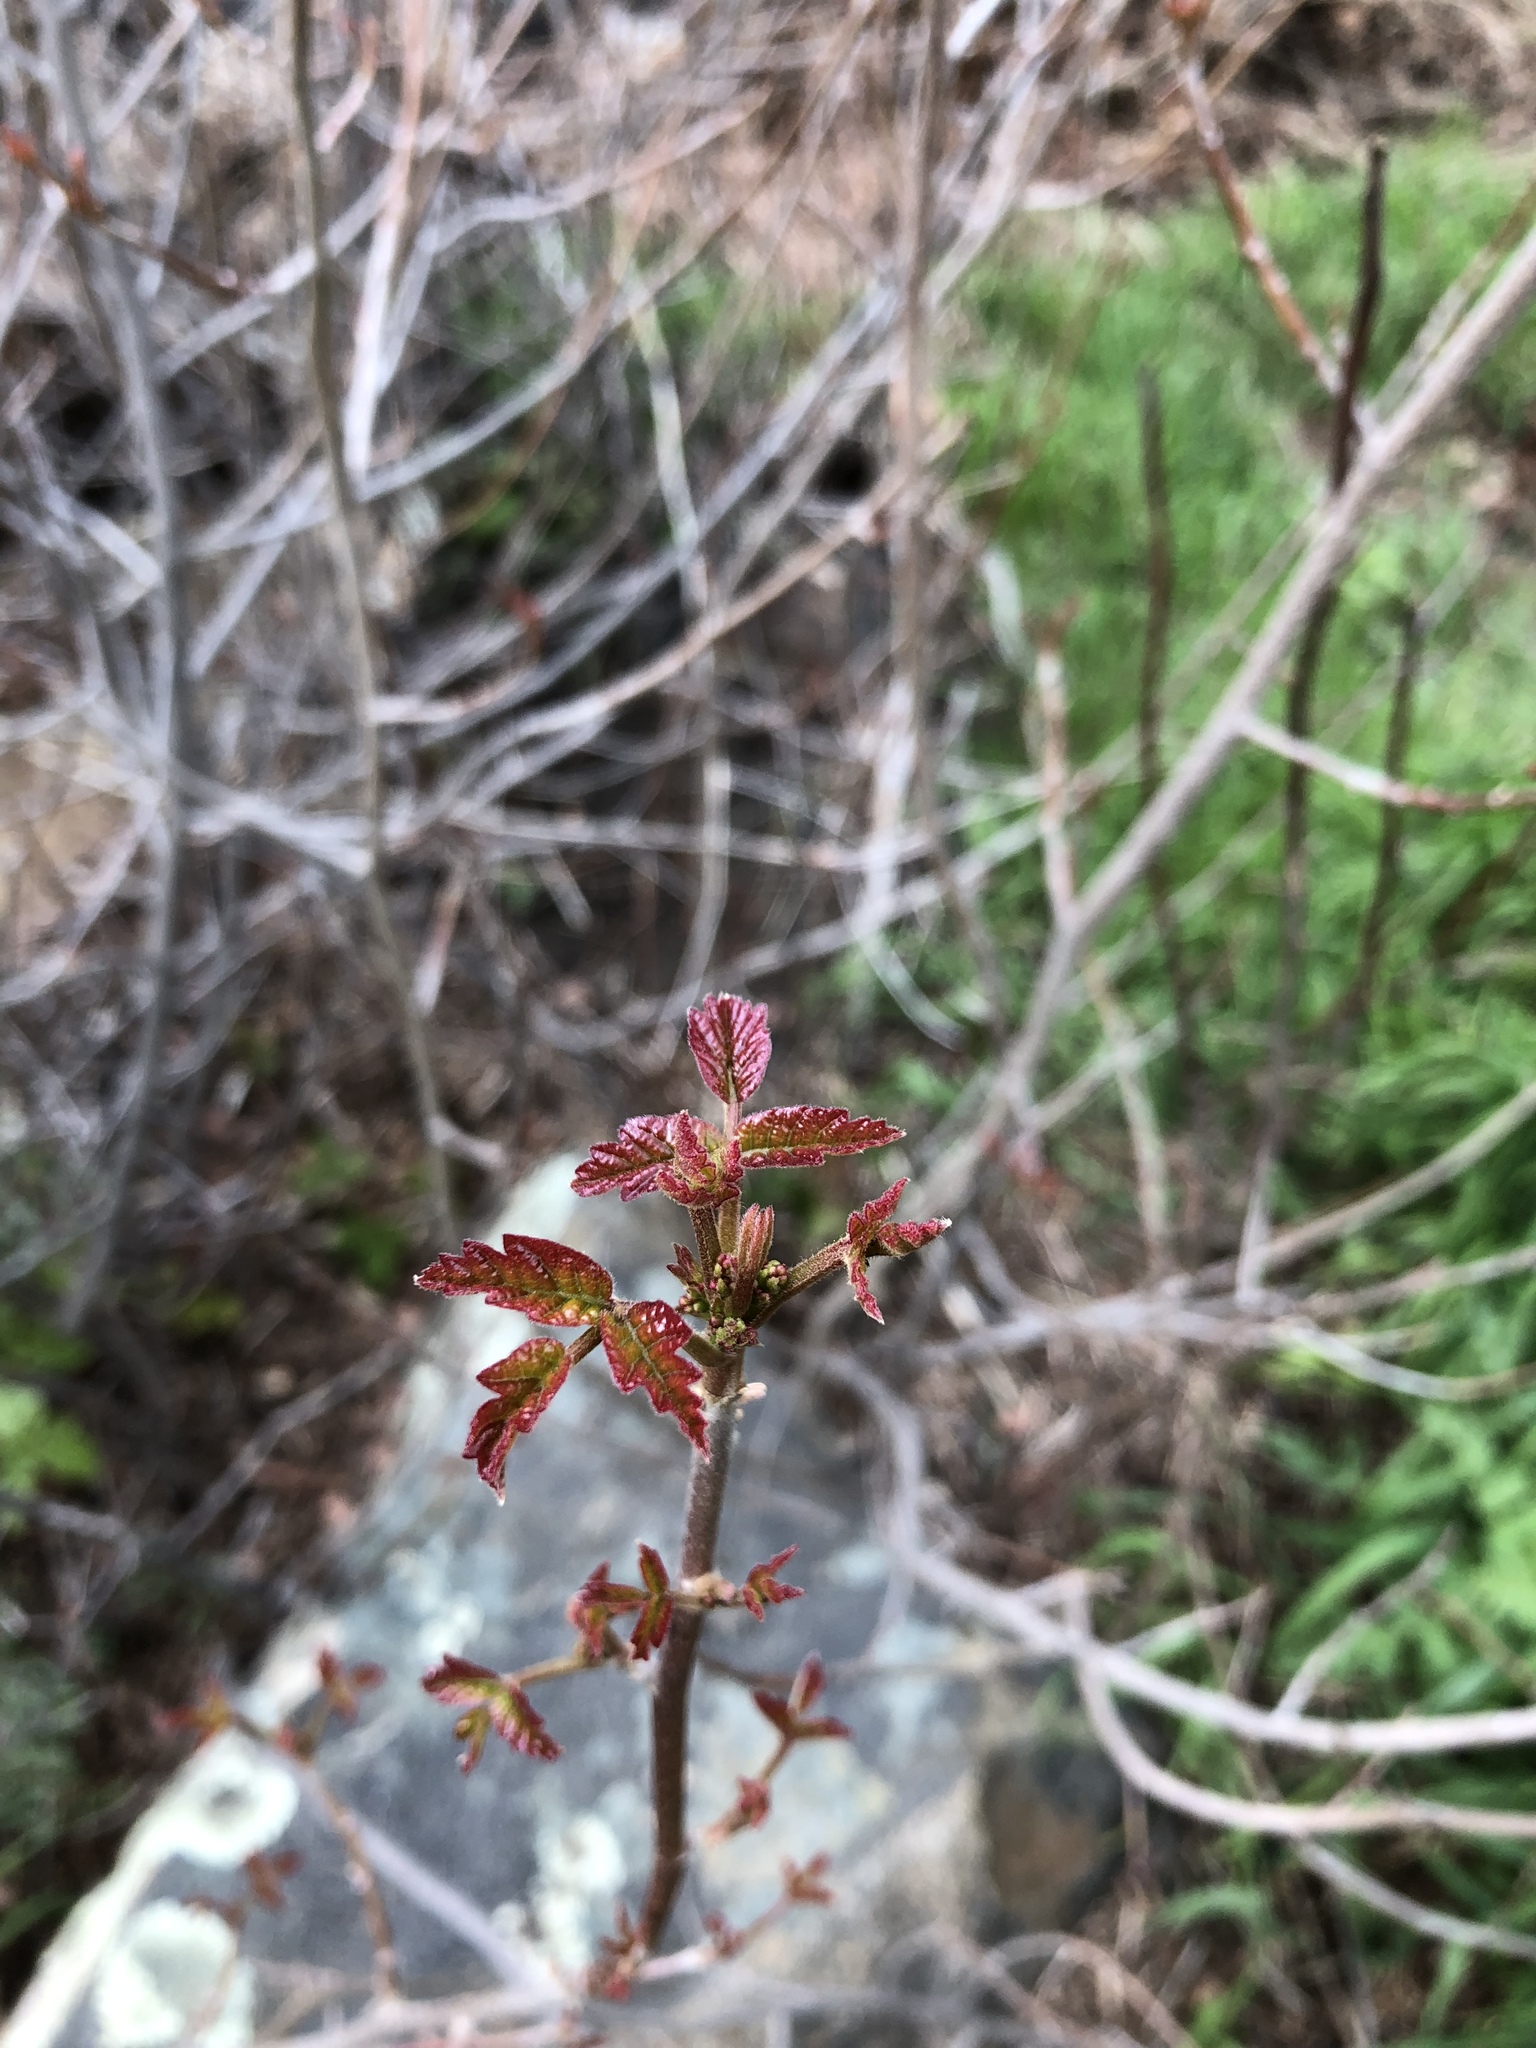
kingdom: Plantae
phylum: Tracheophyta
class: Magnoliopsida
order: Sapindales
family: Anacardiaceae
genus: Toxicodendron
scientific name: Toxicodendron diversilobum
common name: Pacific poison-oak
